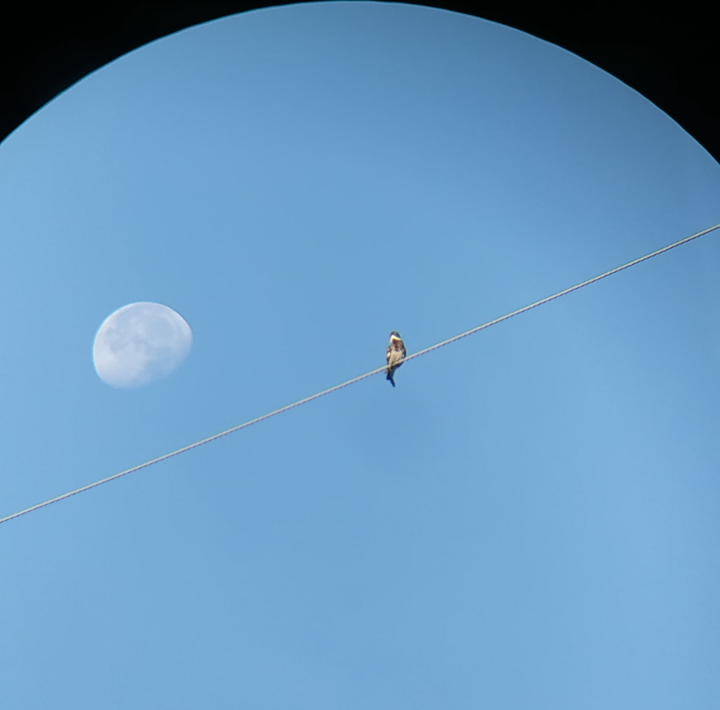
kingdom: Animalia
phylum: Chordata
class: Aves
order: Caprimulgiformes
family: Caprimulgidae
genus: Chordeiles
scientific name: Chordeiles minor
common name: Common nighthawk
